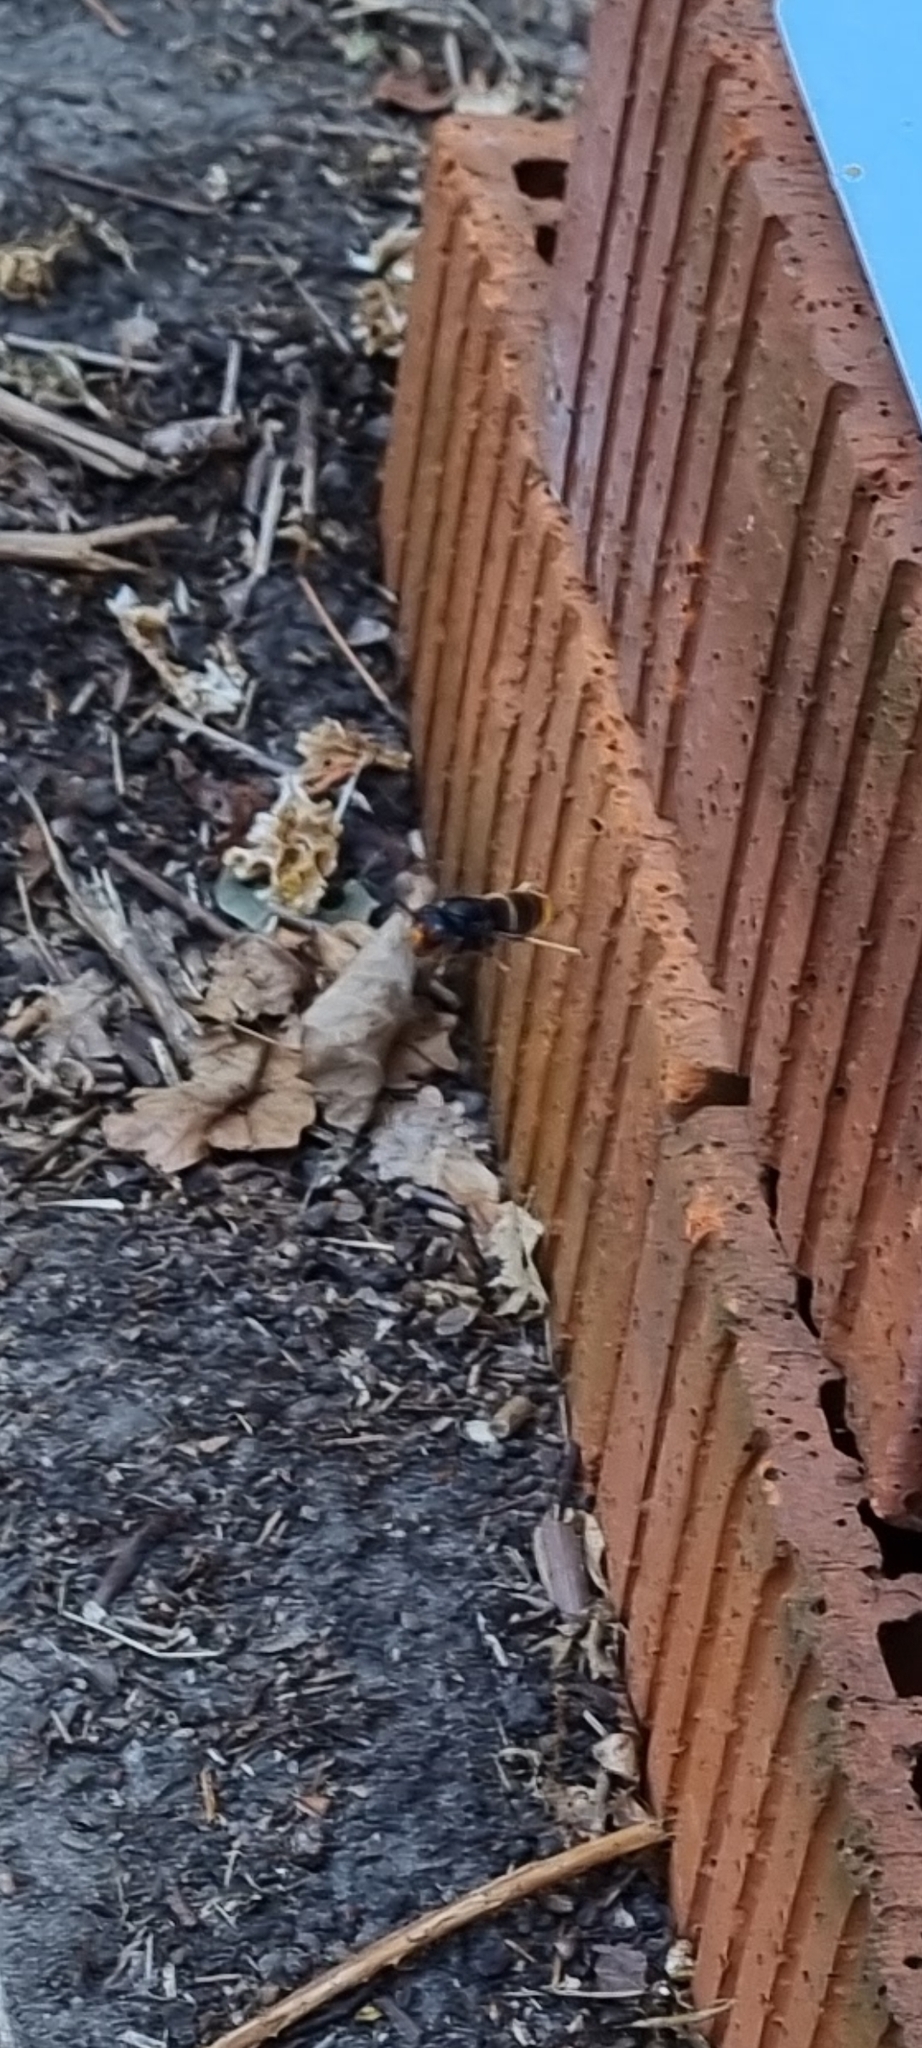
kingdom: Animalia
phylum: Arthropoda
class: Insecta
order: Hymenoptera
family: Vespidae
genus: Vespa
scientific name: Vespa velutina
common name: Asian hornet
